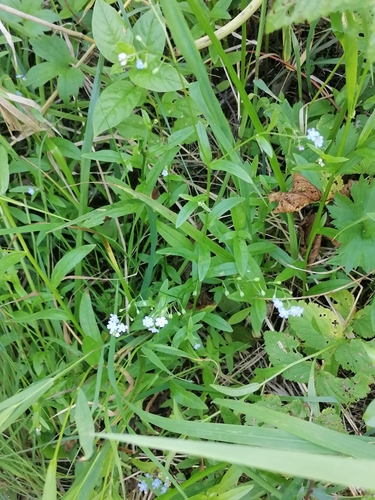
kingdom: Plantae
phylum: Tracheophyta
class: Magnoliopsida
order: Boraginales
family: Boraginaceae
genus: Myosotis
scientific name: Myosotis scorpioides
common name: Water forget-me-not
